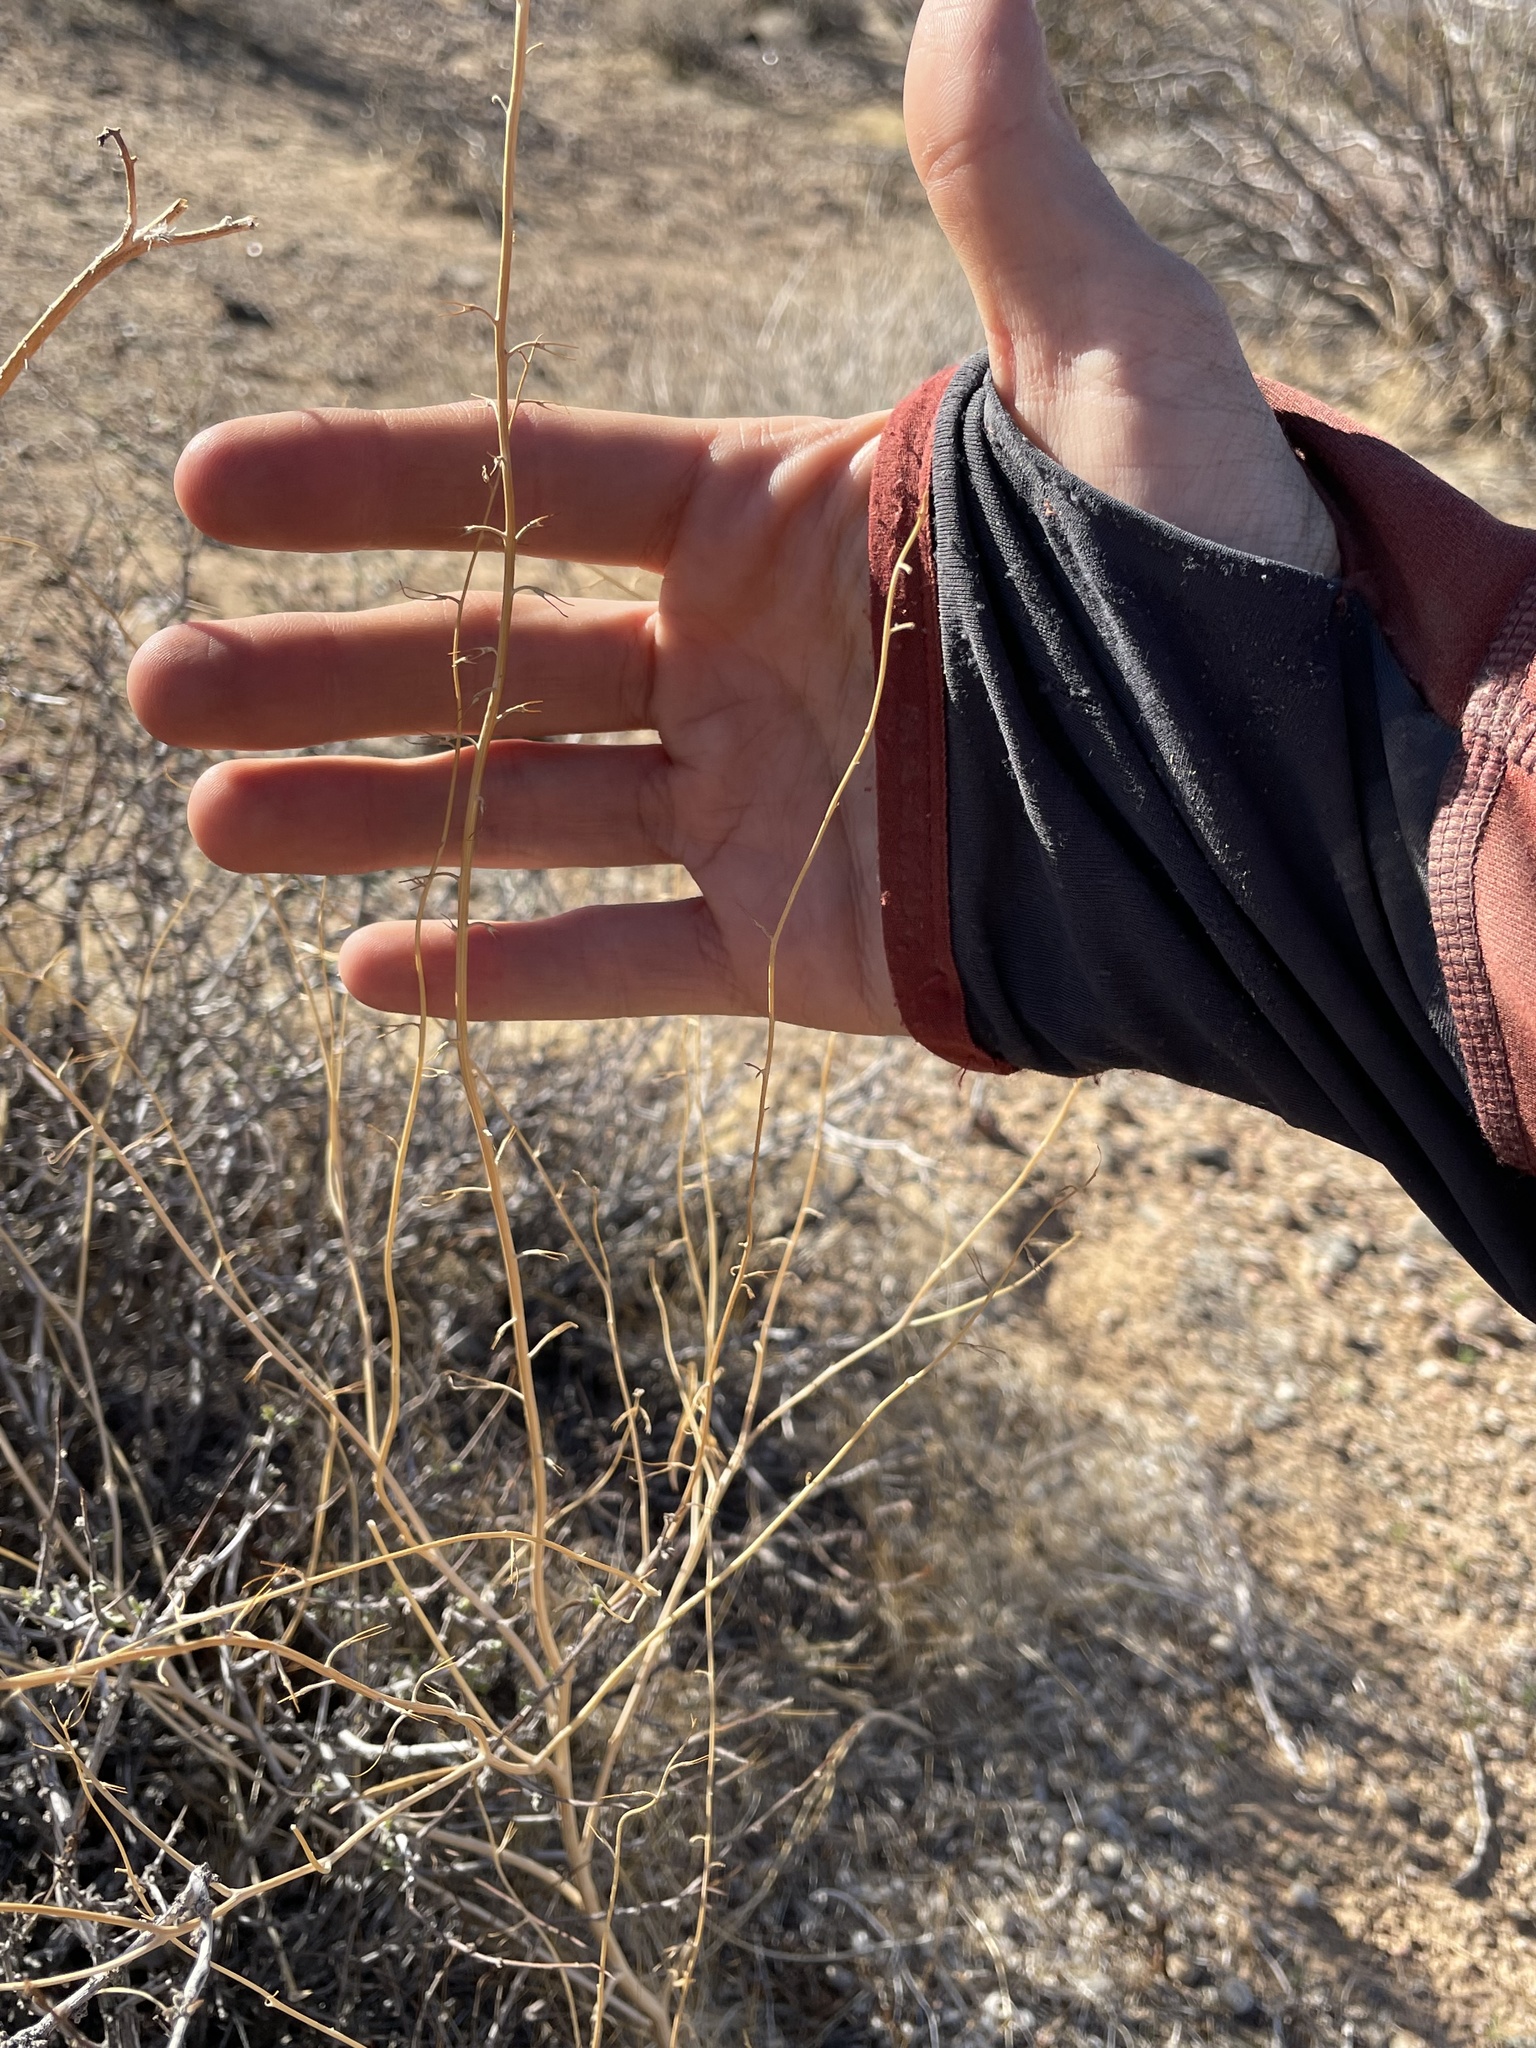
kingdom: Plantae
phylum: Tracheophyta
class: Magnoliopsida
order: Brassicales
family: Brassicaceae
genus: Brassica
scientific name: Brassica tournefortii
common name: Pale cabbage
